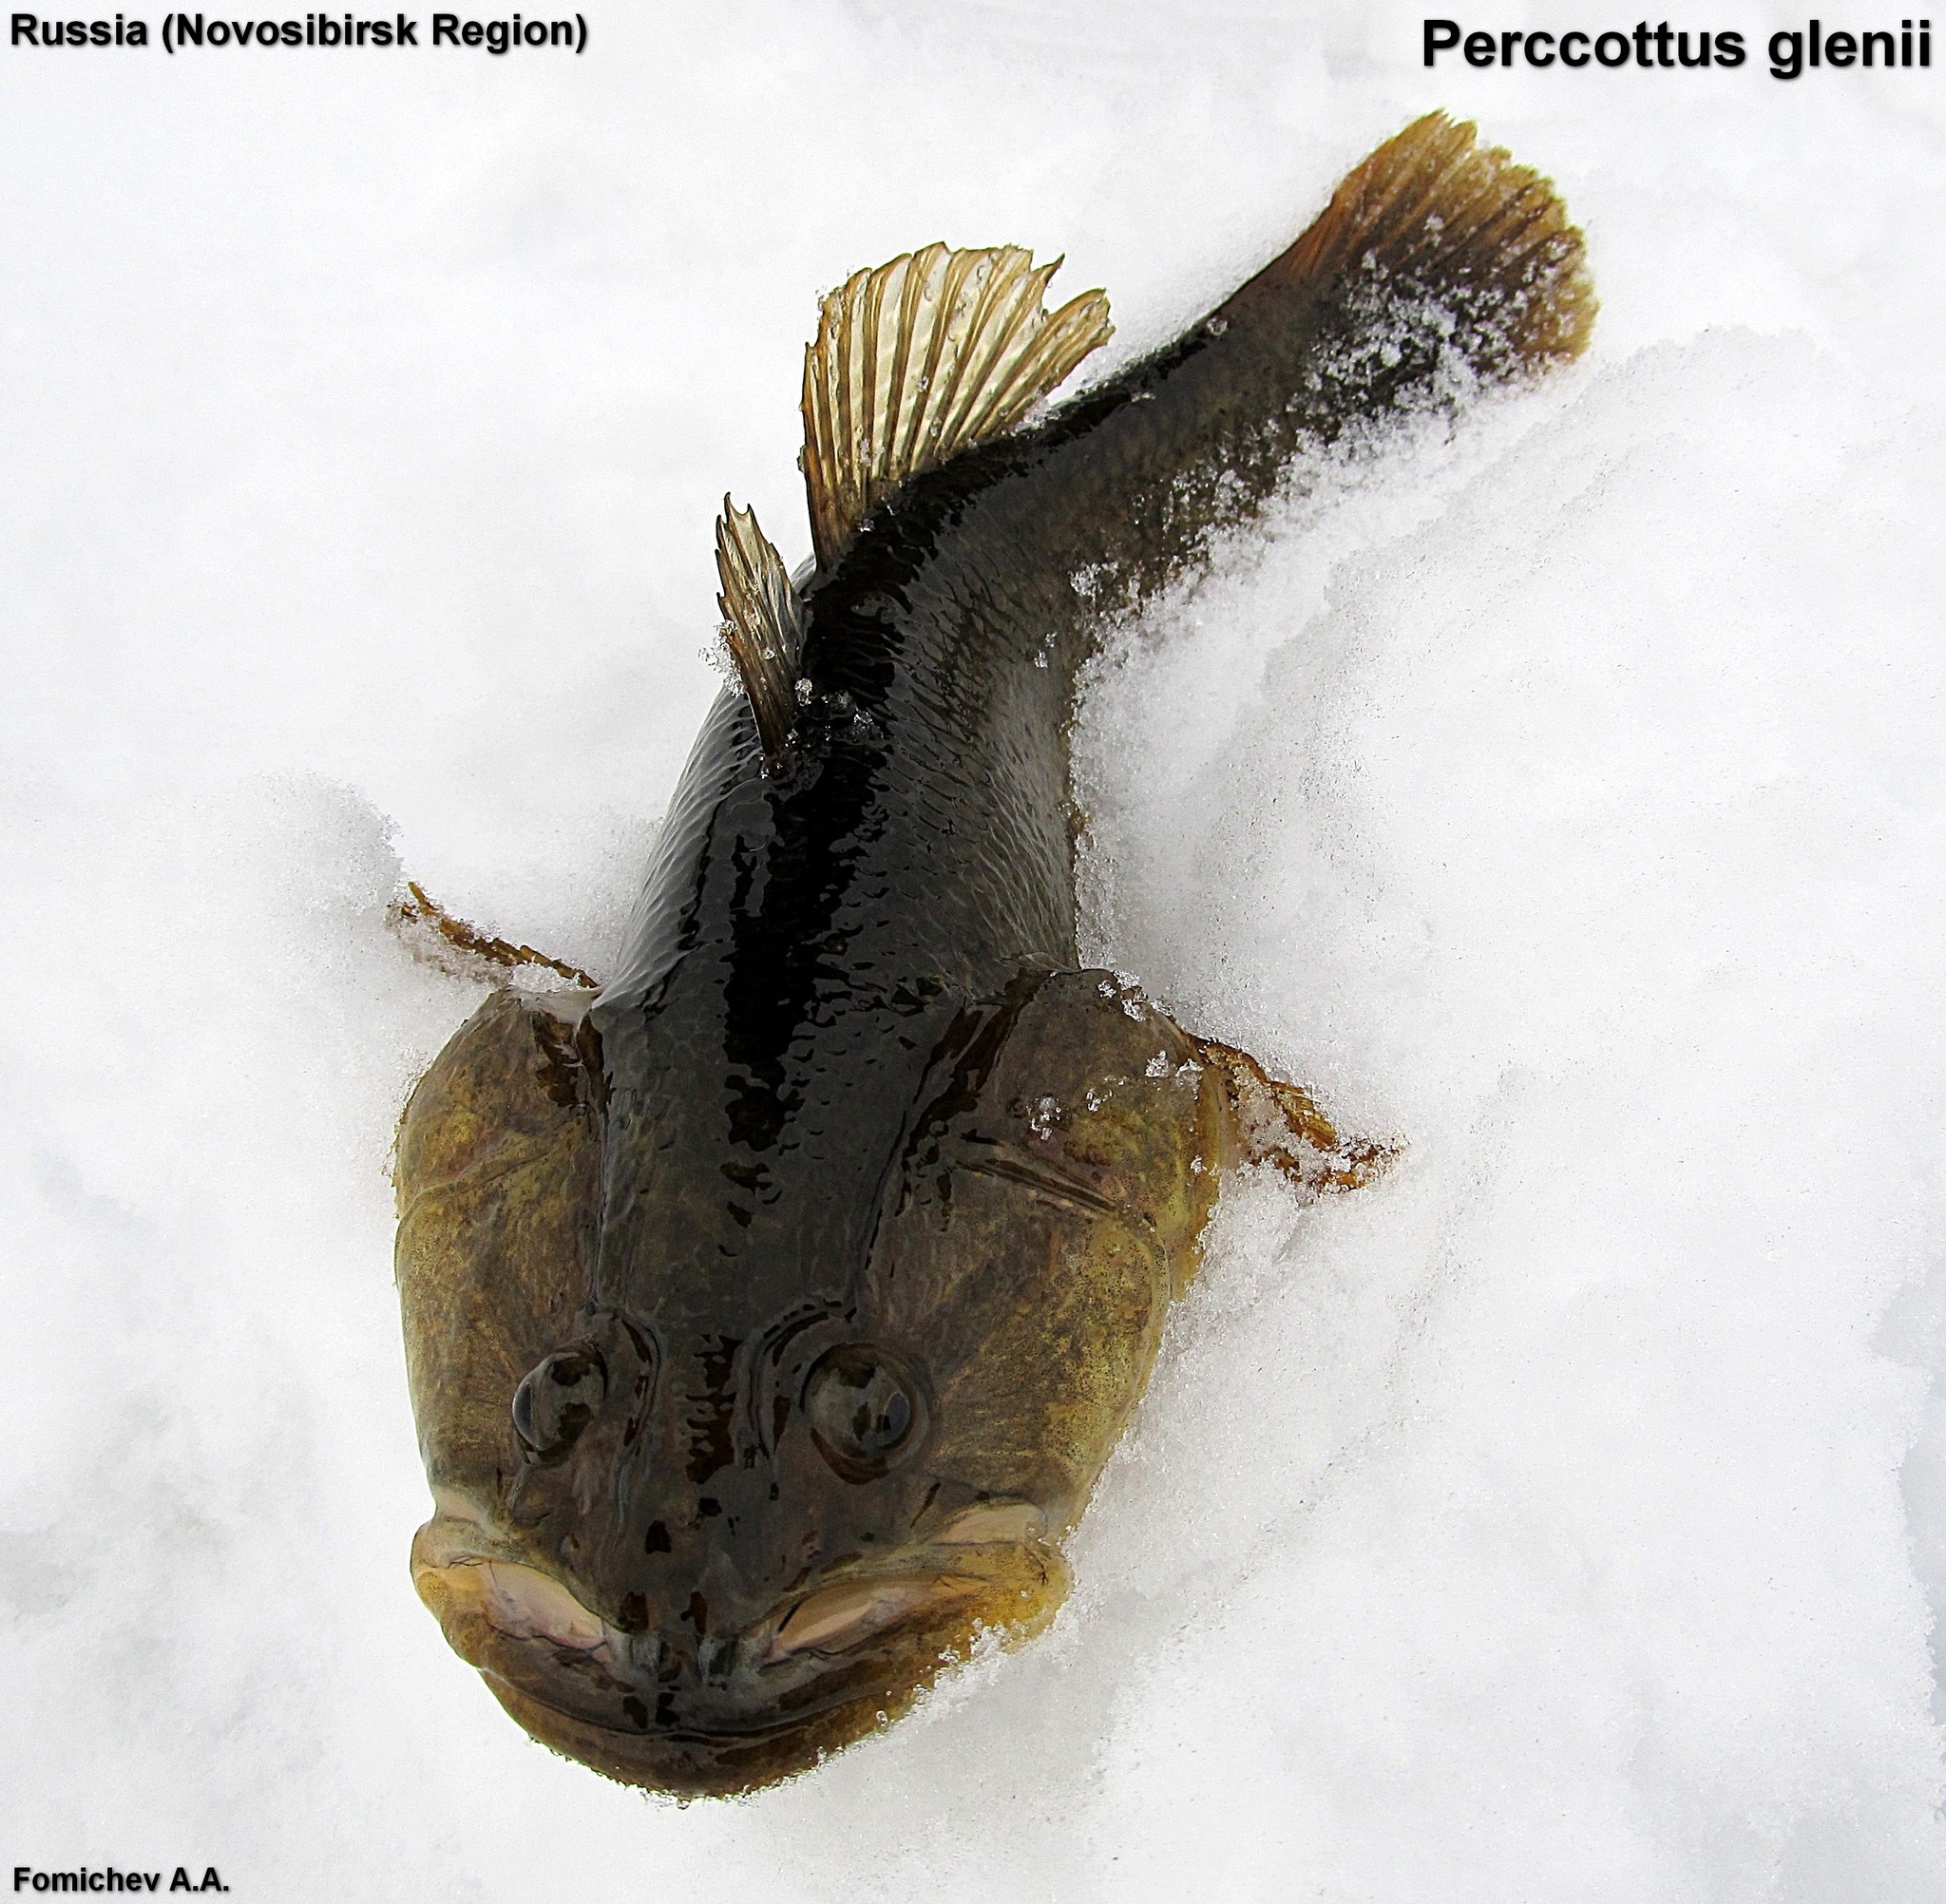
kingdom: Animalia
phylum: Chordata
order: Perciformes
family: Odontobutidae
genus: Perccottus
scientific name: Perccottus glenii
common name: Amur sleeper
